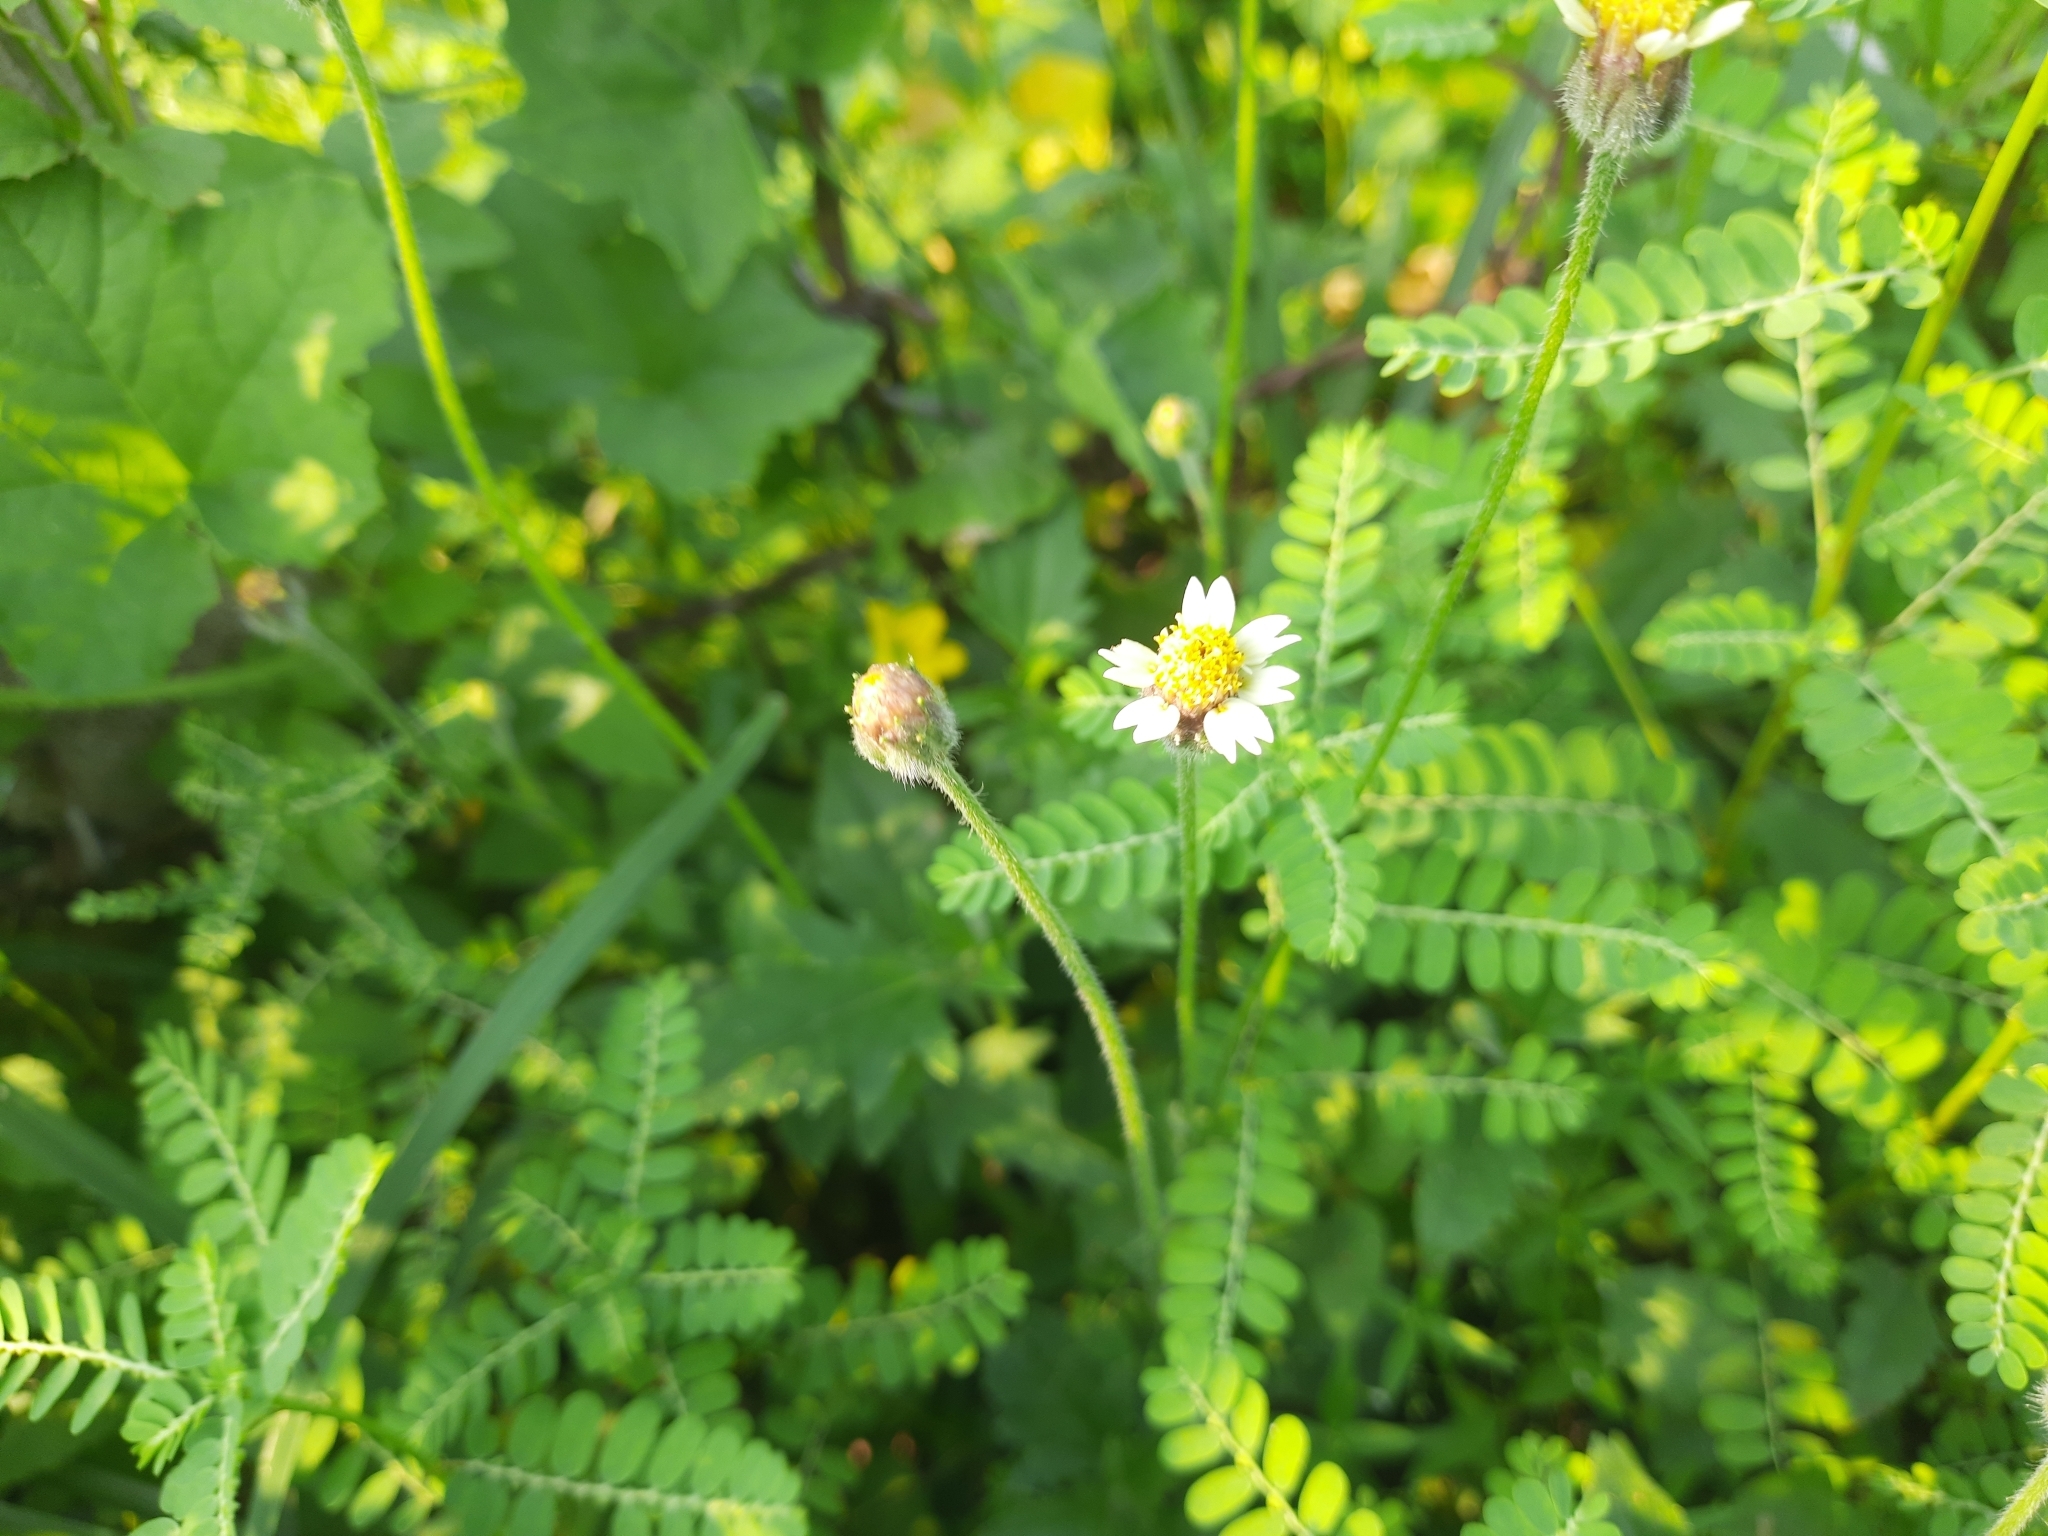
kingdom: Plantae
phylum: Tracheophyta
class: Magnoliopsida
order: Asterales
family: Asteraceae
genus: Tridax
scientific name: Tridax procumbens
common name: Coatbuttons
